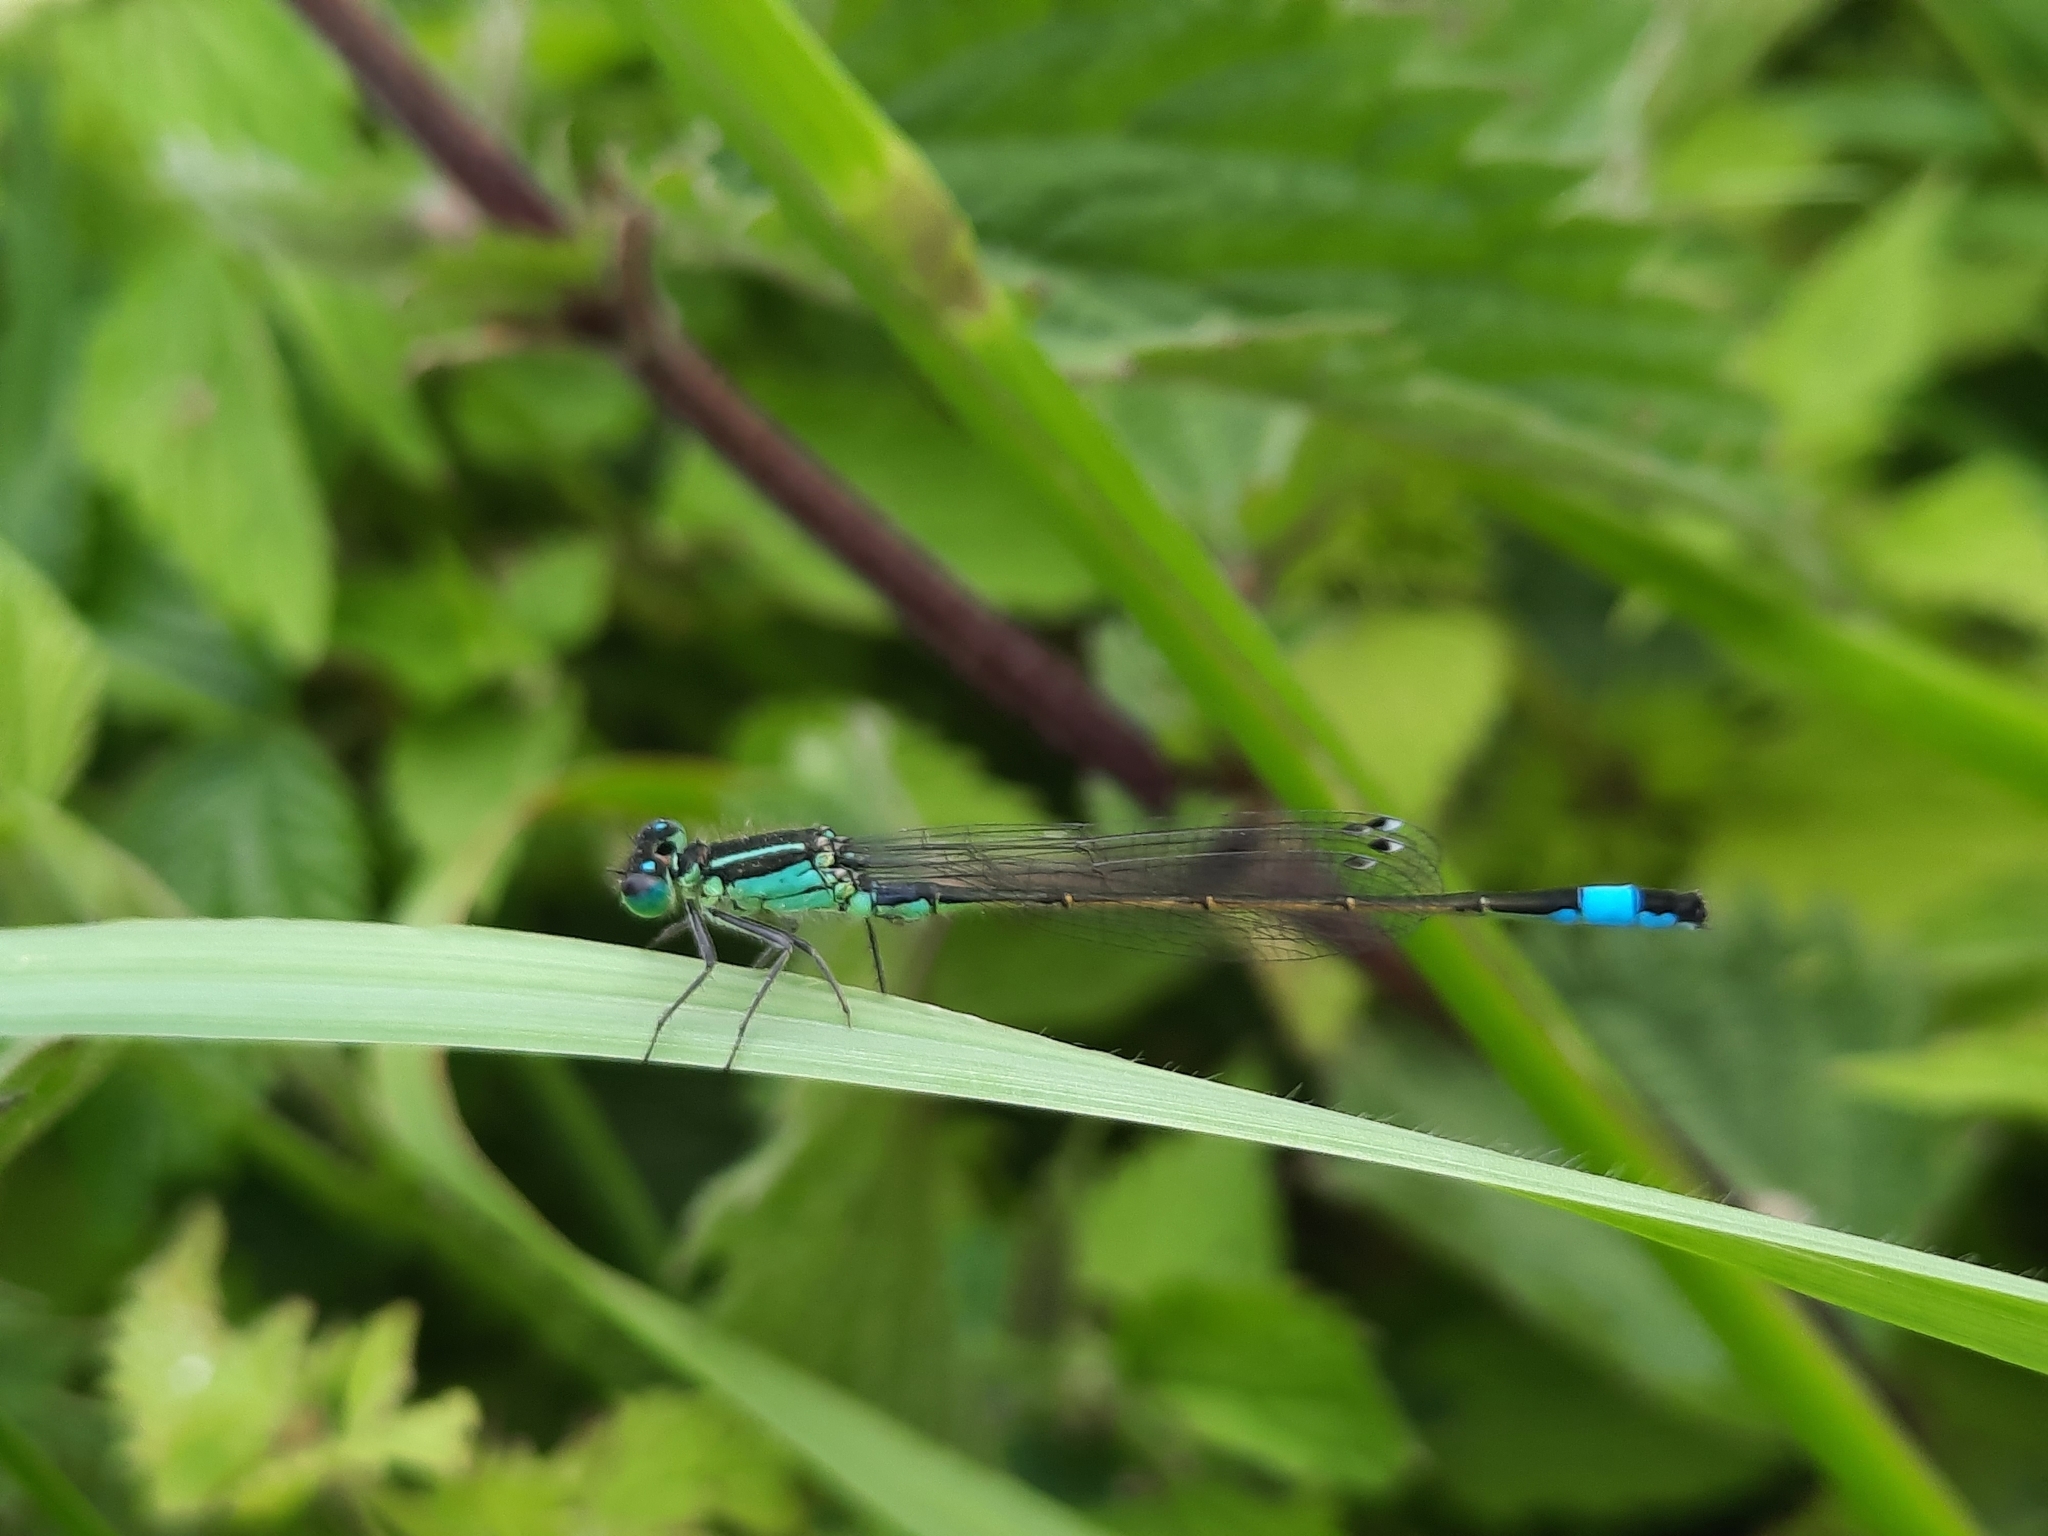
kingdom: Animalia
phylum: Arthropoda
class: Insecta
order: Odonata
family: Coenagrionidae
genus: Ischnura
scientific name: Ischnura elegans
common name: Blue-tailed damselfly
